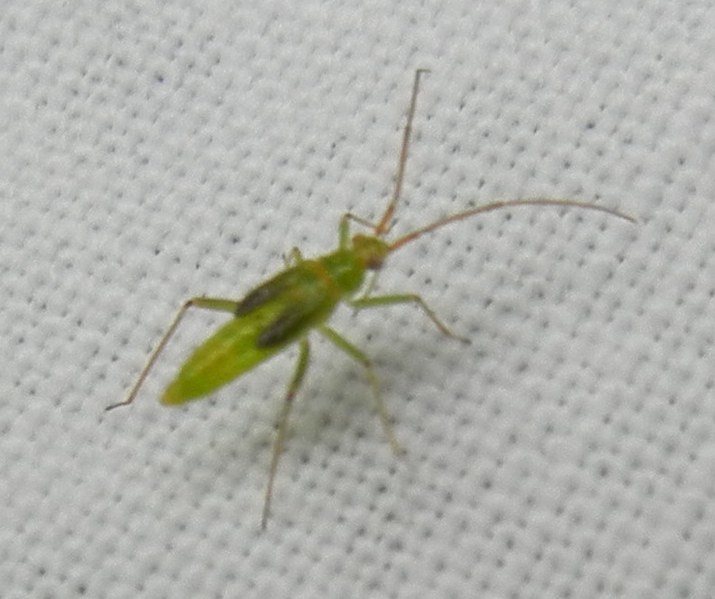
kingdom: Animalia
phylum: Arthropoda
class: Insecta
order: Hemiptera
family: Miridae
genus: Blepharidopterus
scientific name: Blepharidopterus angulatus
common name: Plant bug
